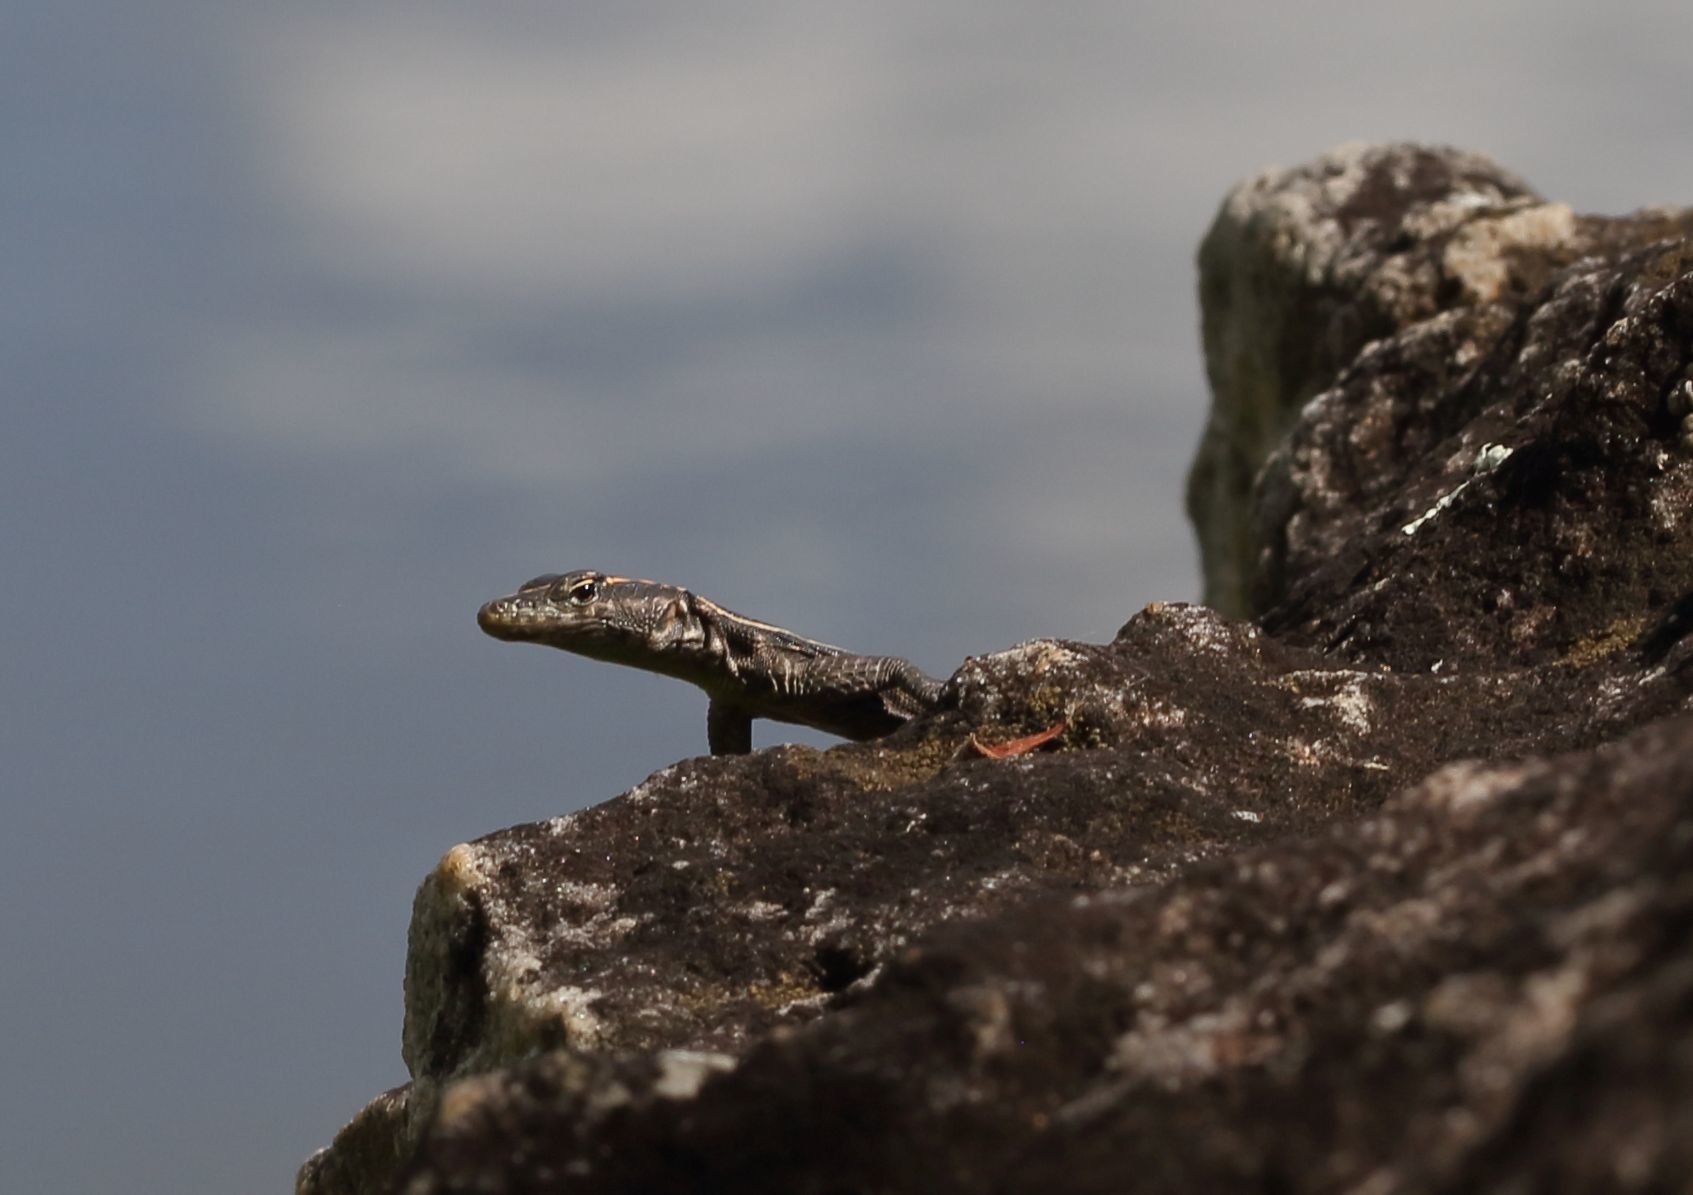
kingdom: Animalia
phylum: Chordata
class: Squamata
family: Cordylidae
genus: Platysaurus
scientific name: Platysaurus intermedius
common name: Common flat lizard
